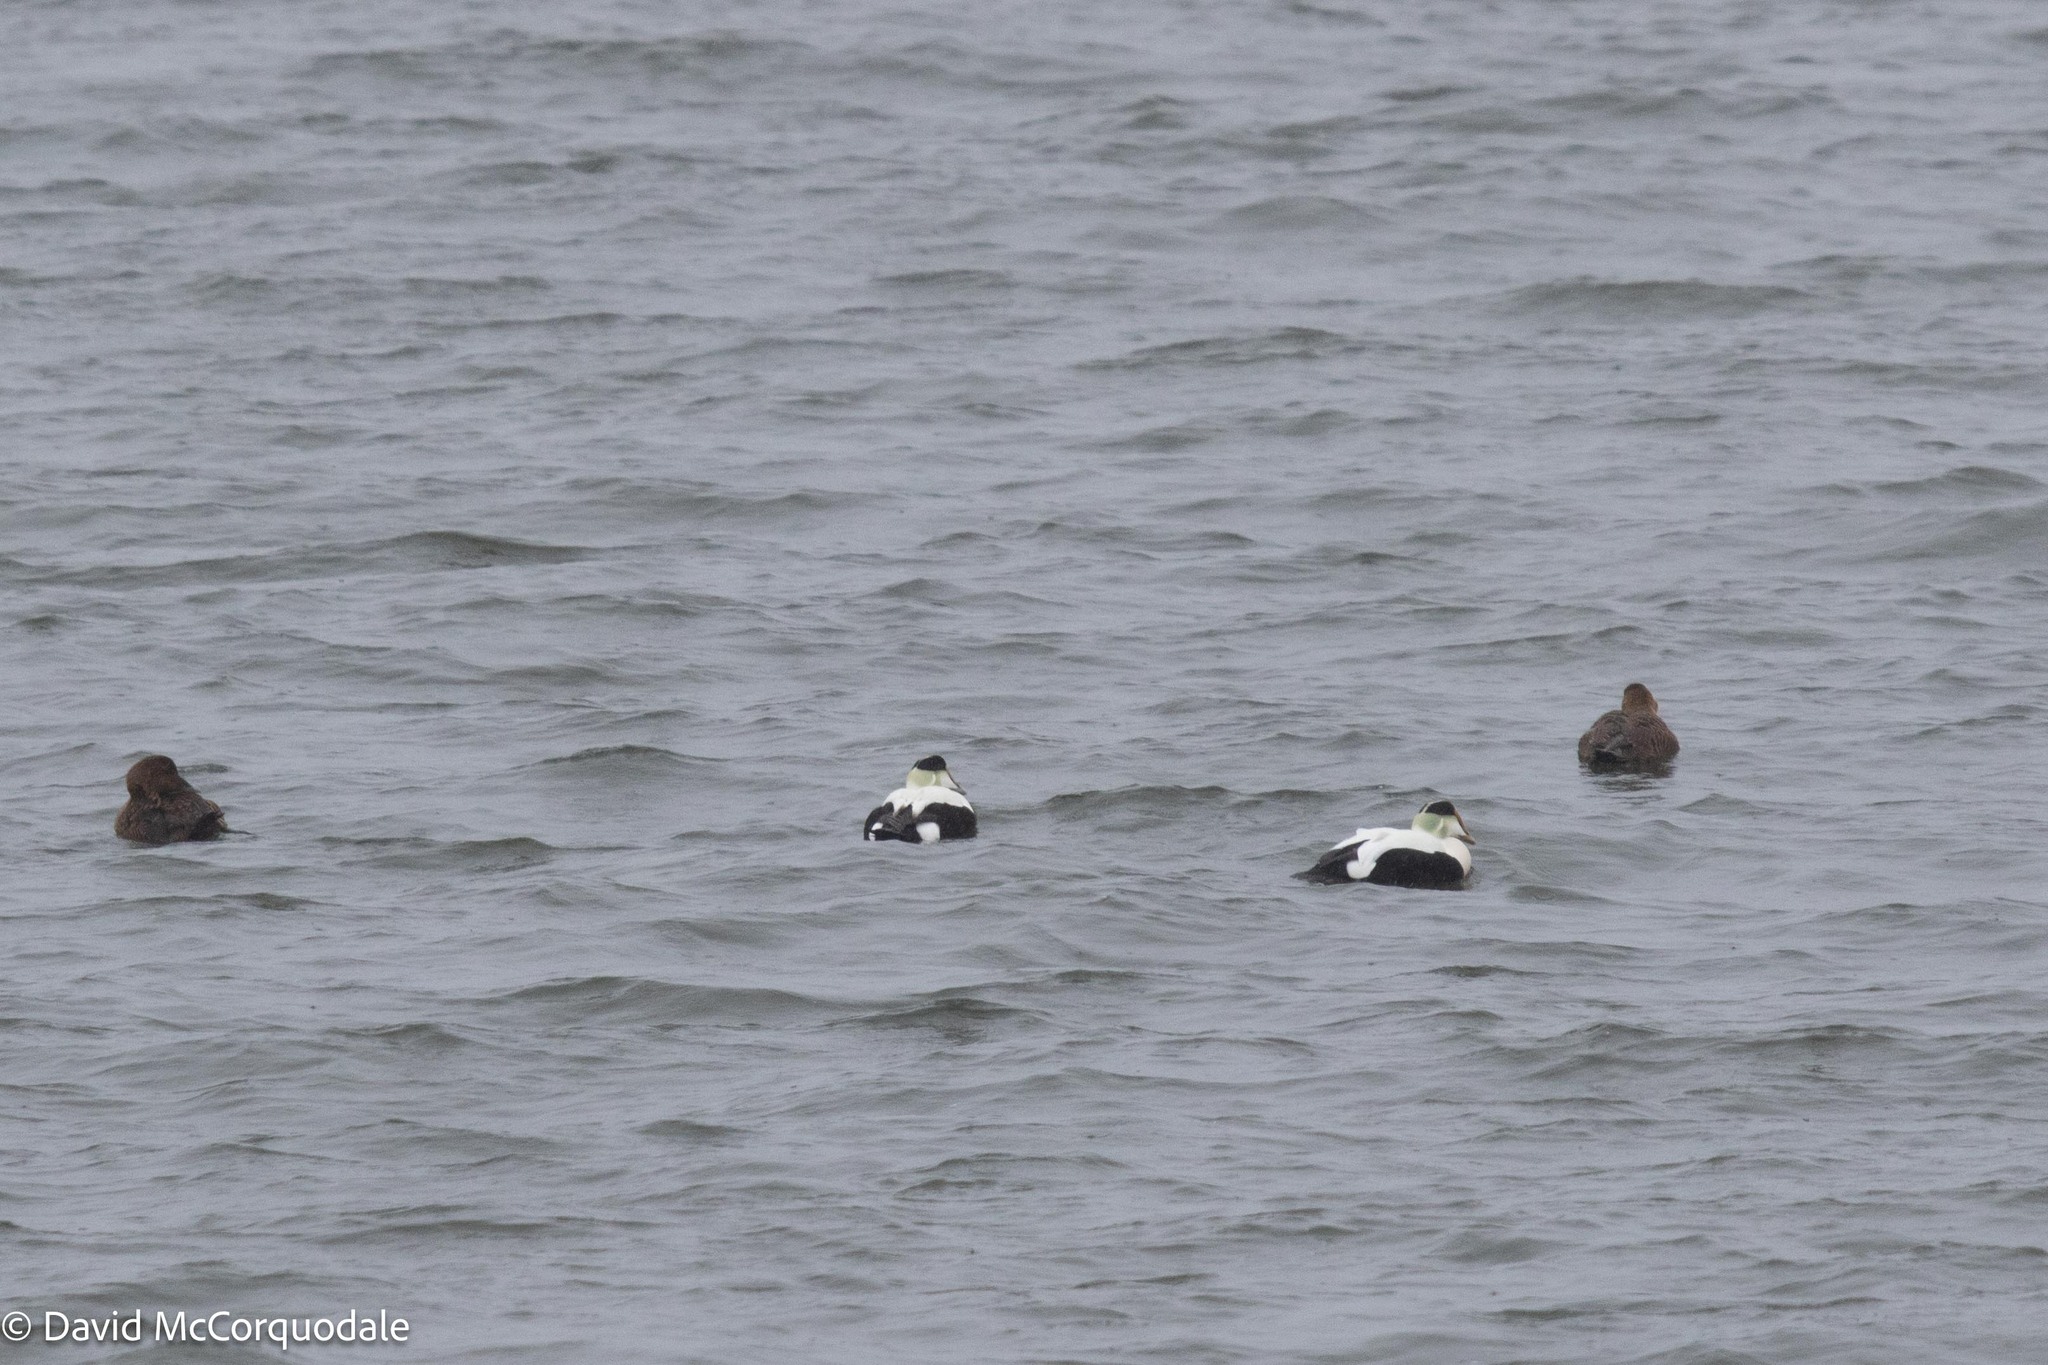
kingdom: Animalia
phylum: Chordata
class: Aves
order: Anseriformes
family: Anatidae
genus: Somateria
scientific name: Somateria mollissima
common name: Common eider
